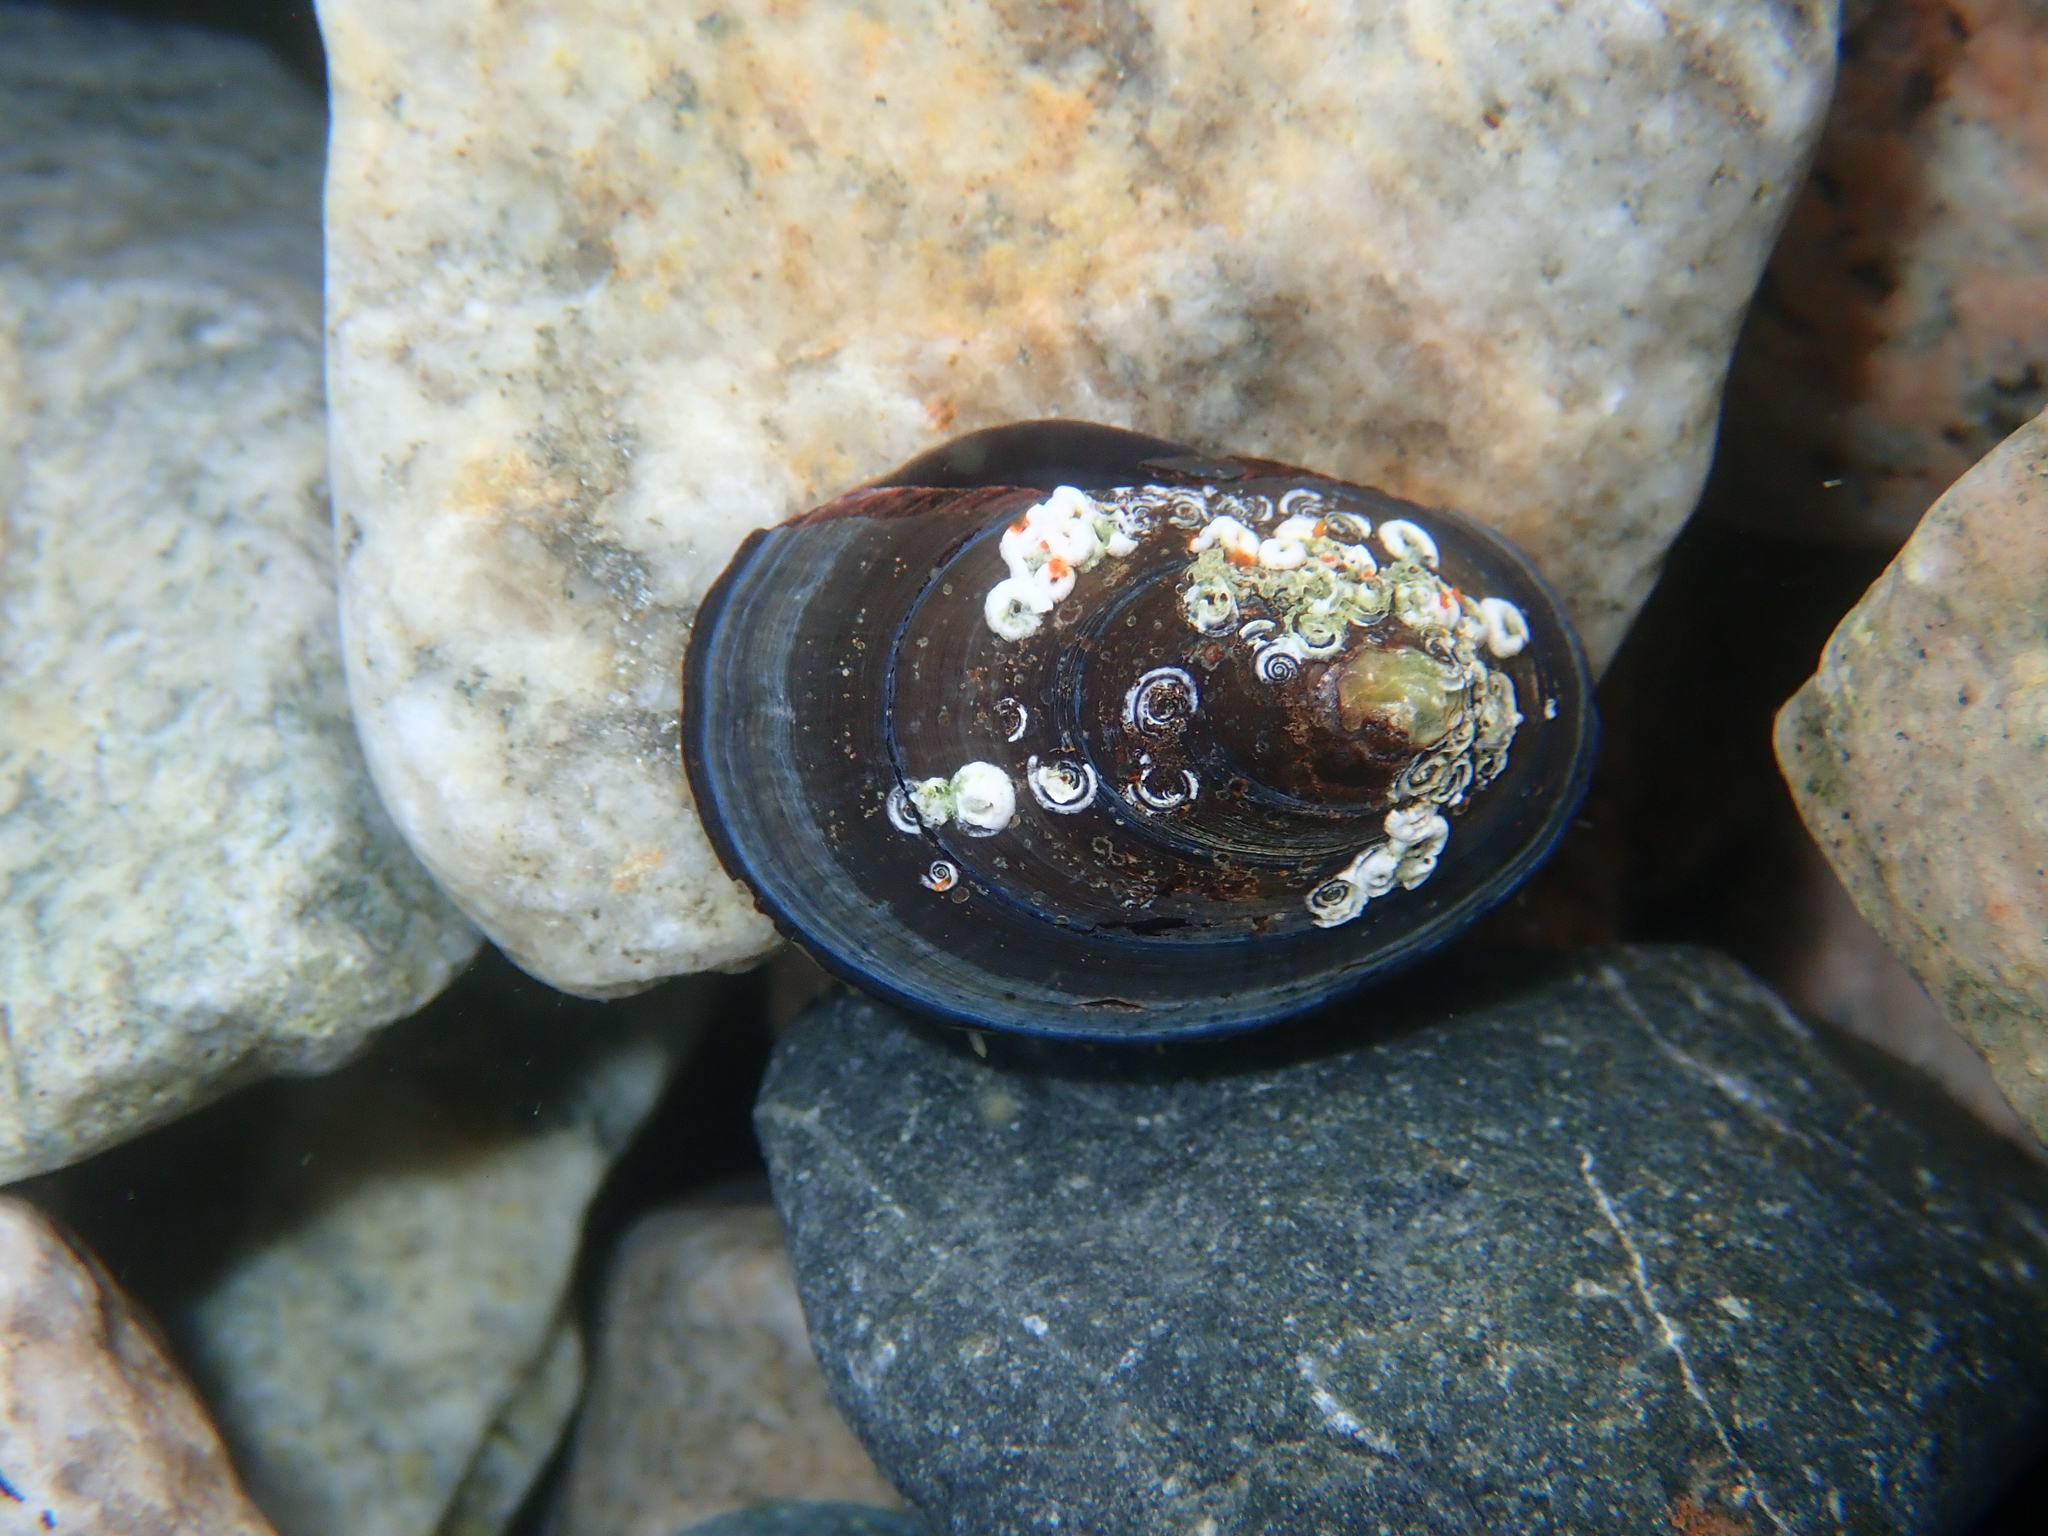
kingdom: Animalia
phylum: Mollusca
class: Gastropoda
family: Nacellidae
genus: Nacella
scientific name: Nacella concinna
